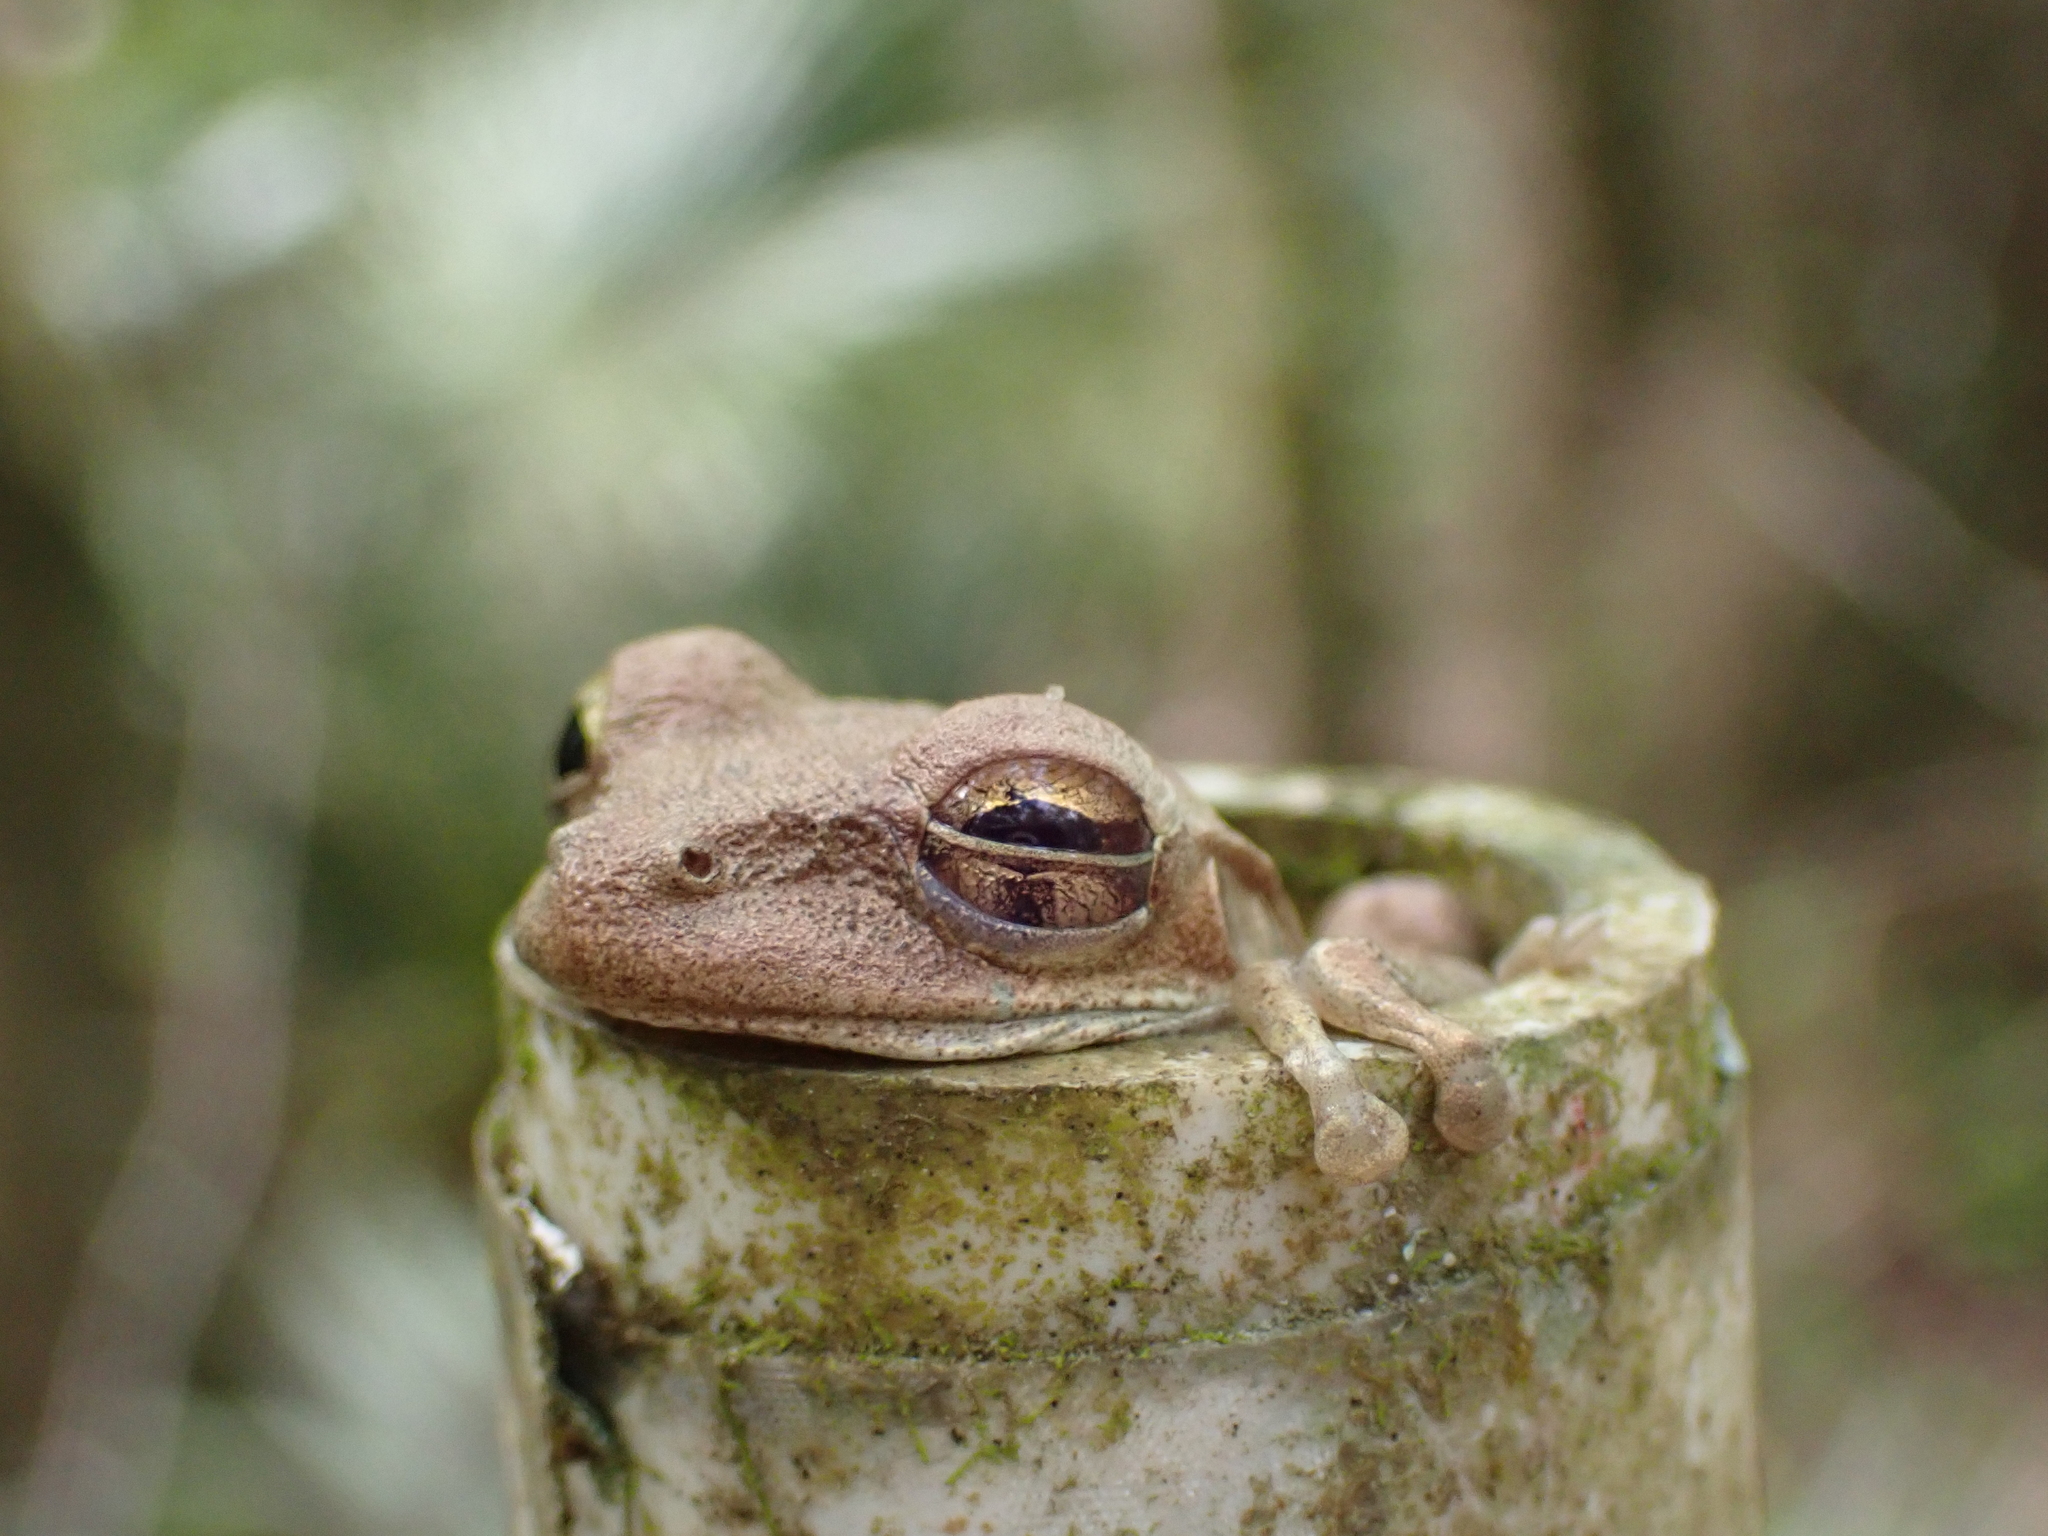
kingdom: Animalia
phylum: Chordata
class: Amphibia
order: Anura
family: Hylidae
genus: Osteopilus
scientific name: Osteopilus septentrionalis
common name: Cuban treefrog
